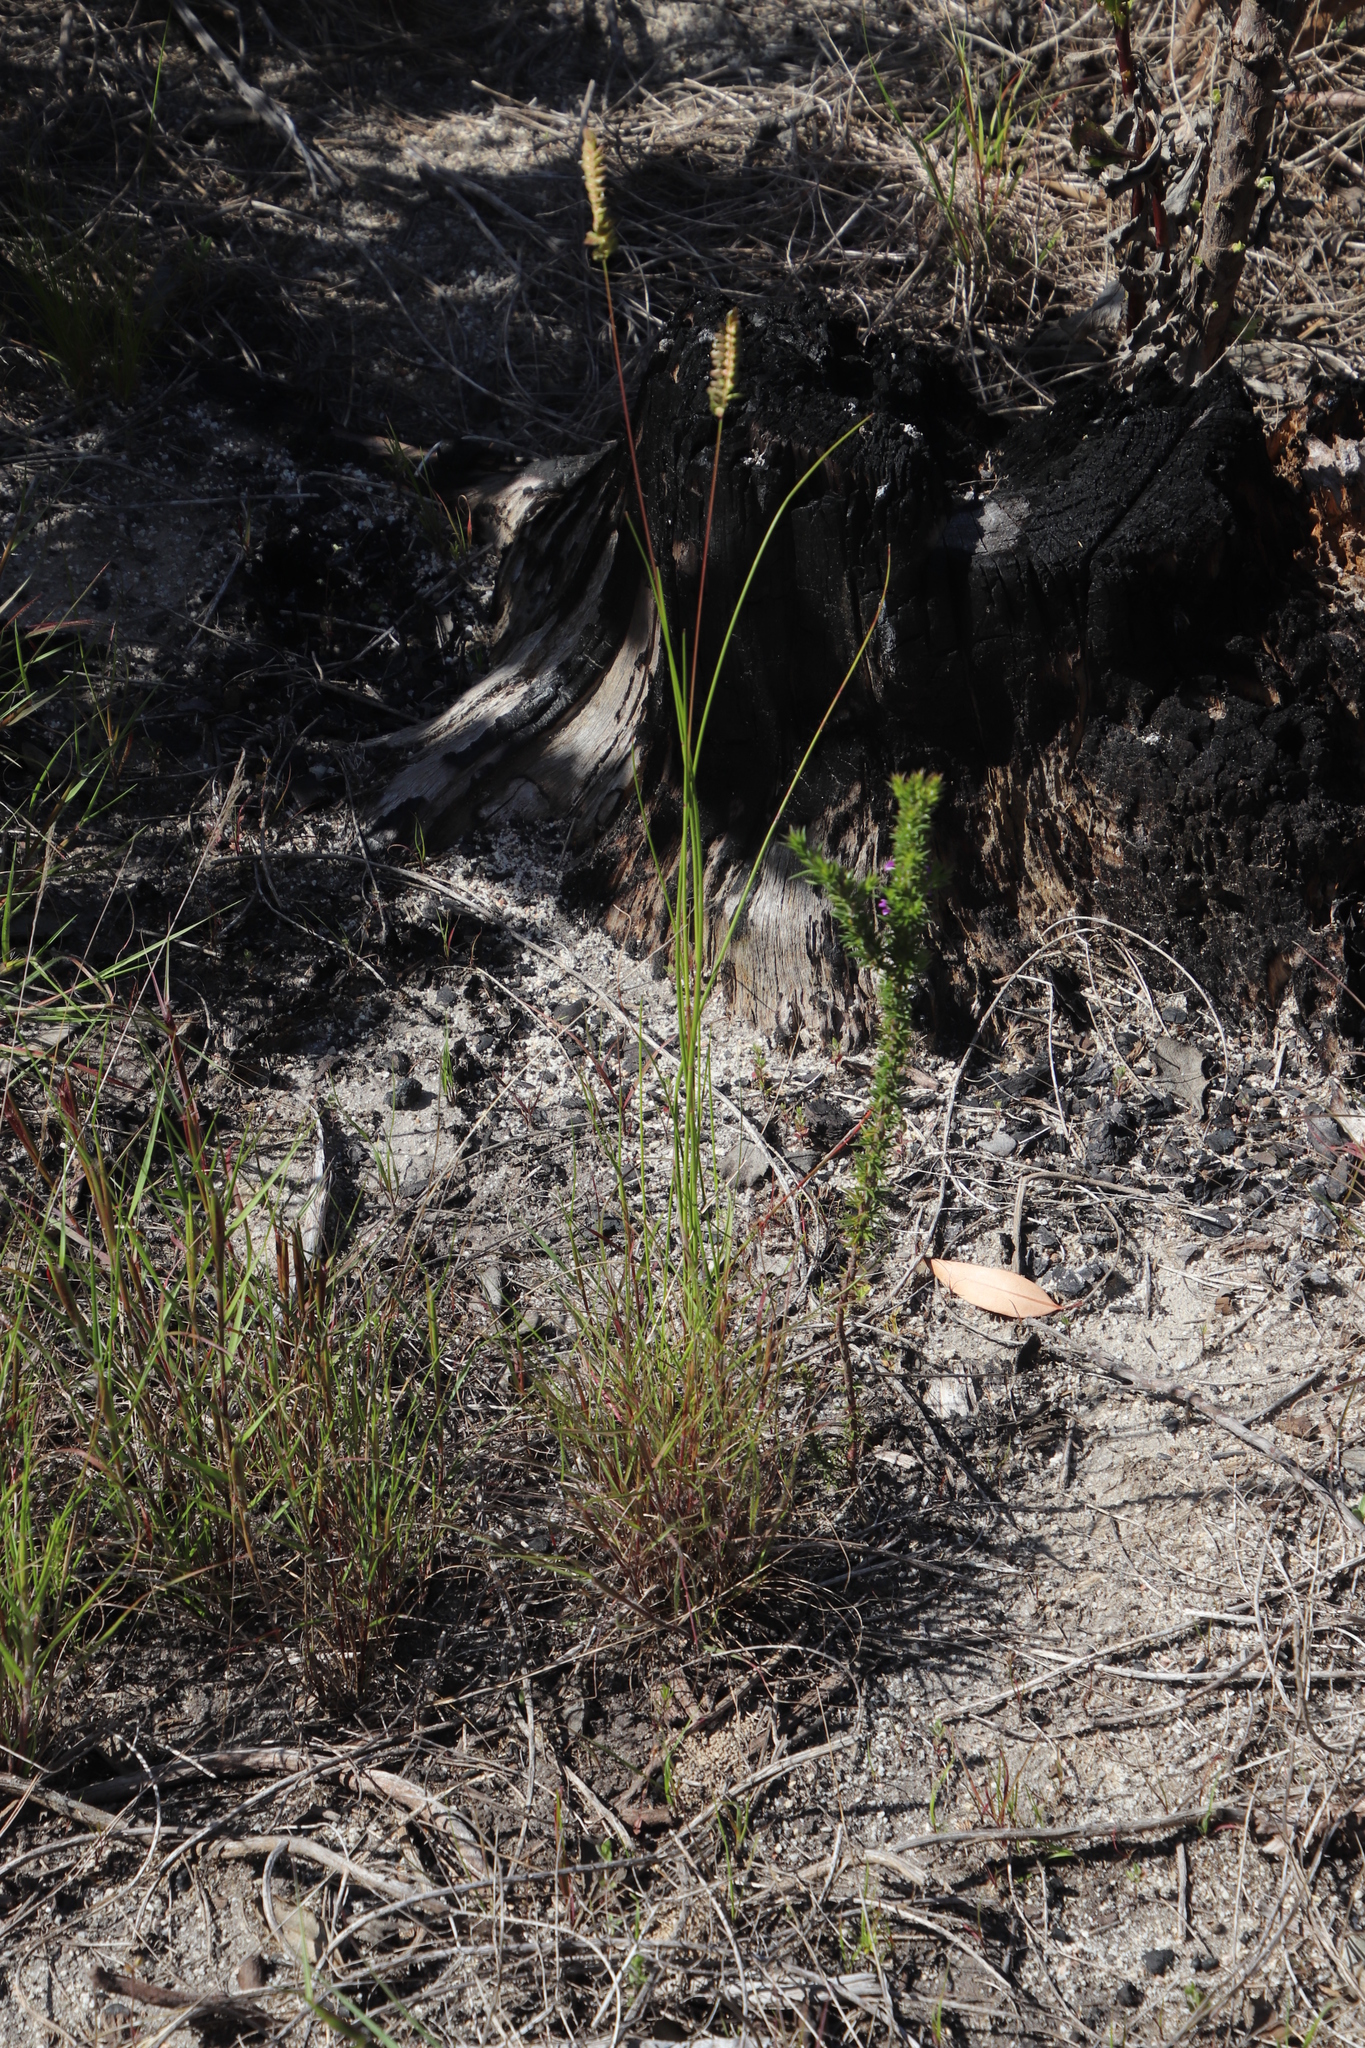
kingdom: Plantae
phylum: Tracheophyta
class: Liliopsida
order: Poales
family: Poaceae
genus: Tribolium
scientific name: Tribolium uniolae
